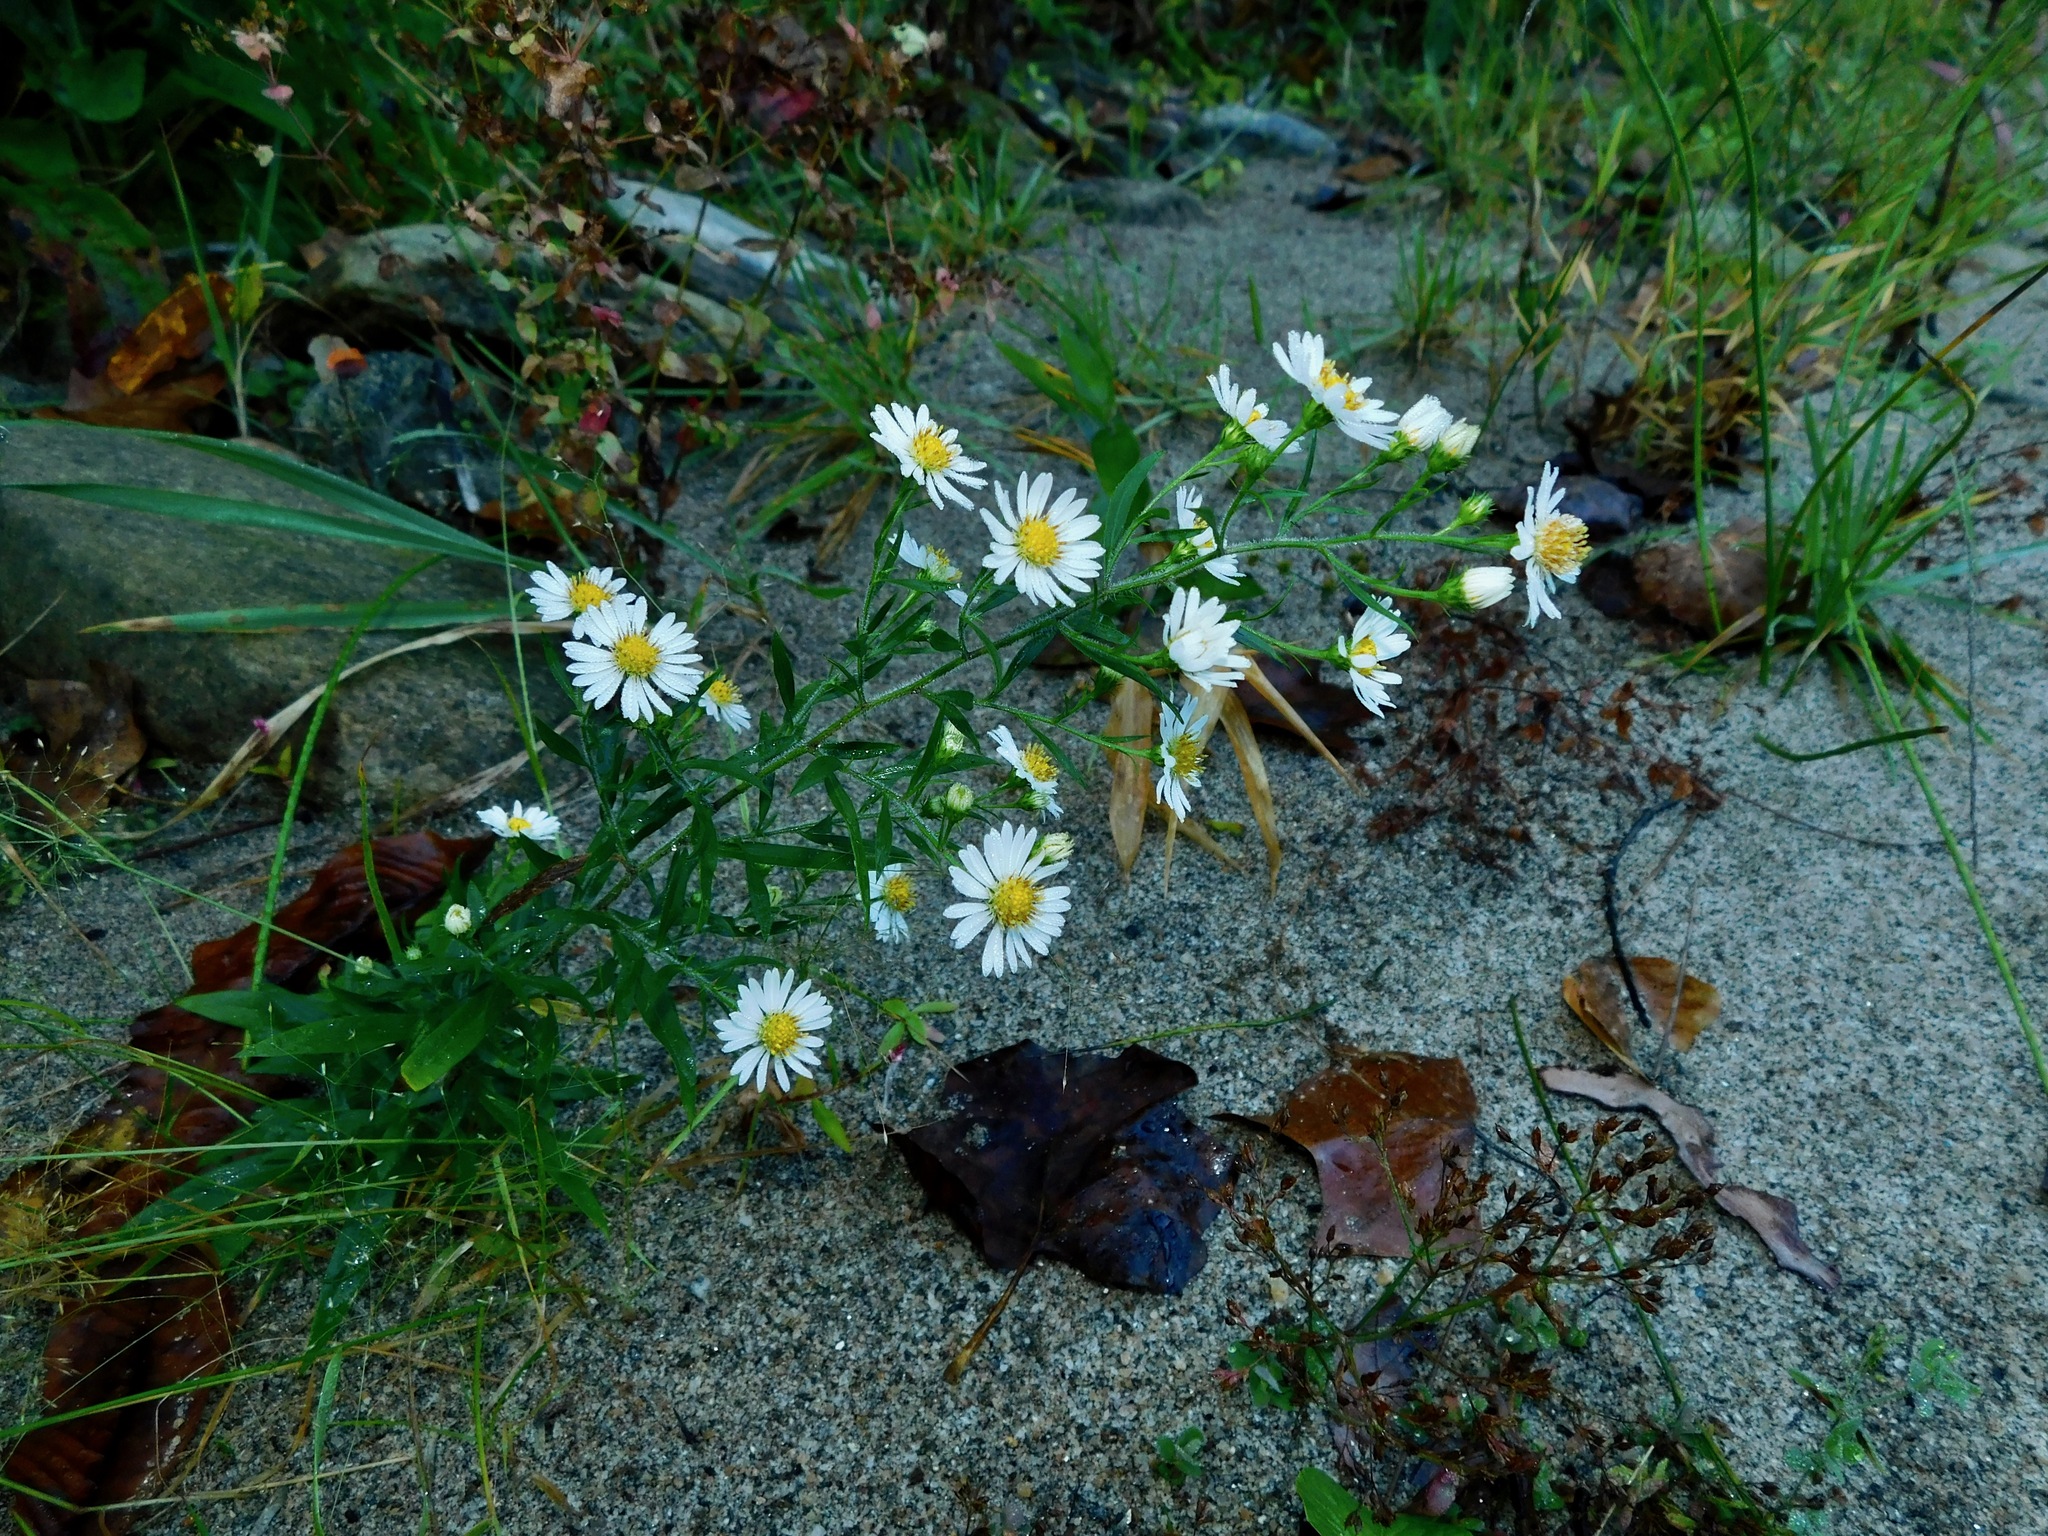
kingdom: Plantae
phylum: Tracheophyta
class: Magnoliopsida
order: Asterales
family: Asteraceae
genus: Symphyotrichum
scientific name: Symphyotrichum pilosum
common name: Awl aster
